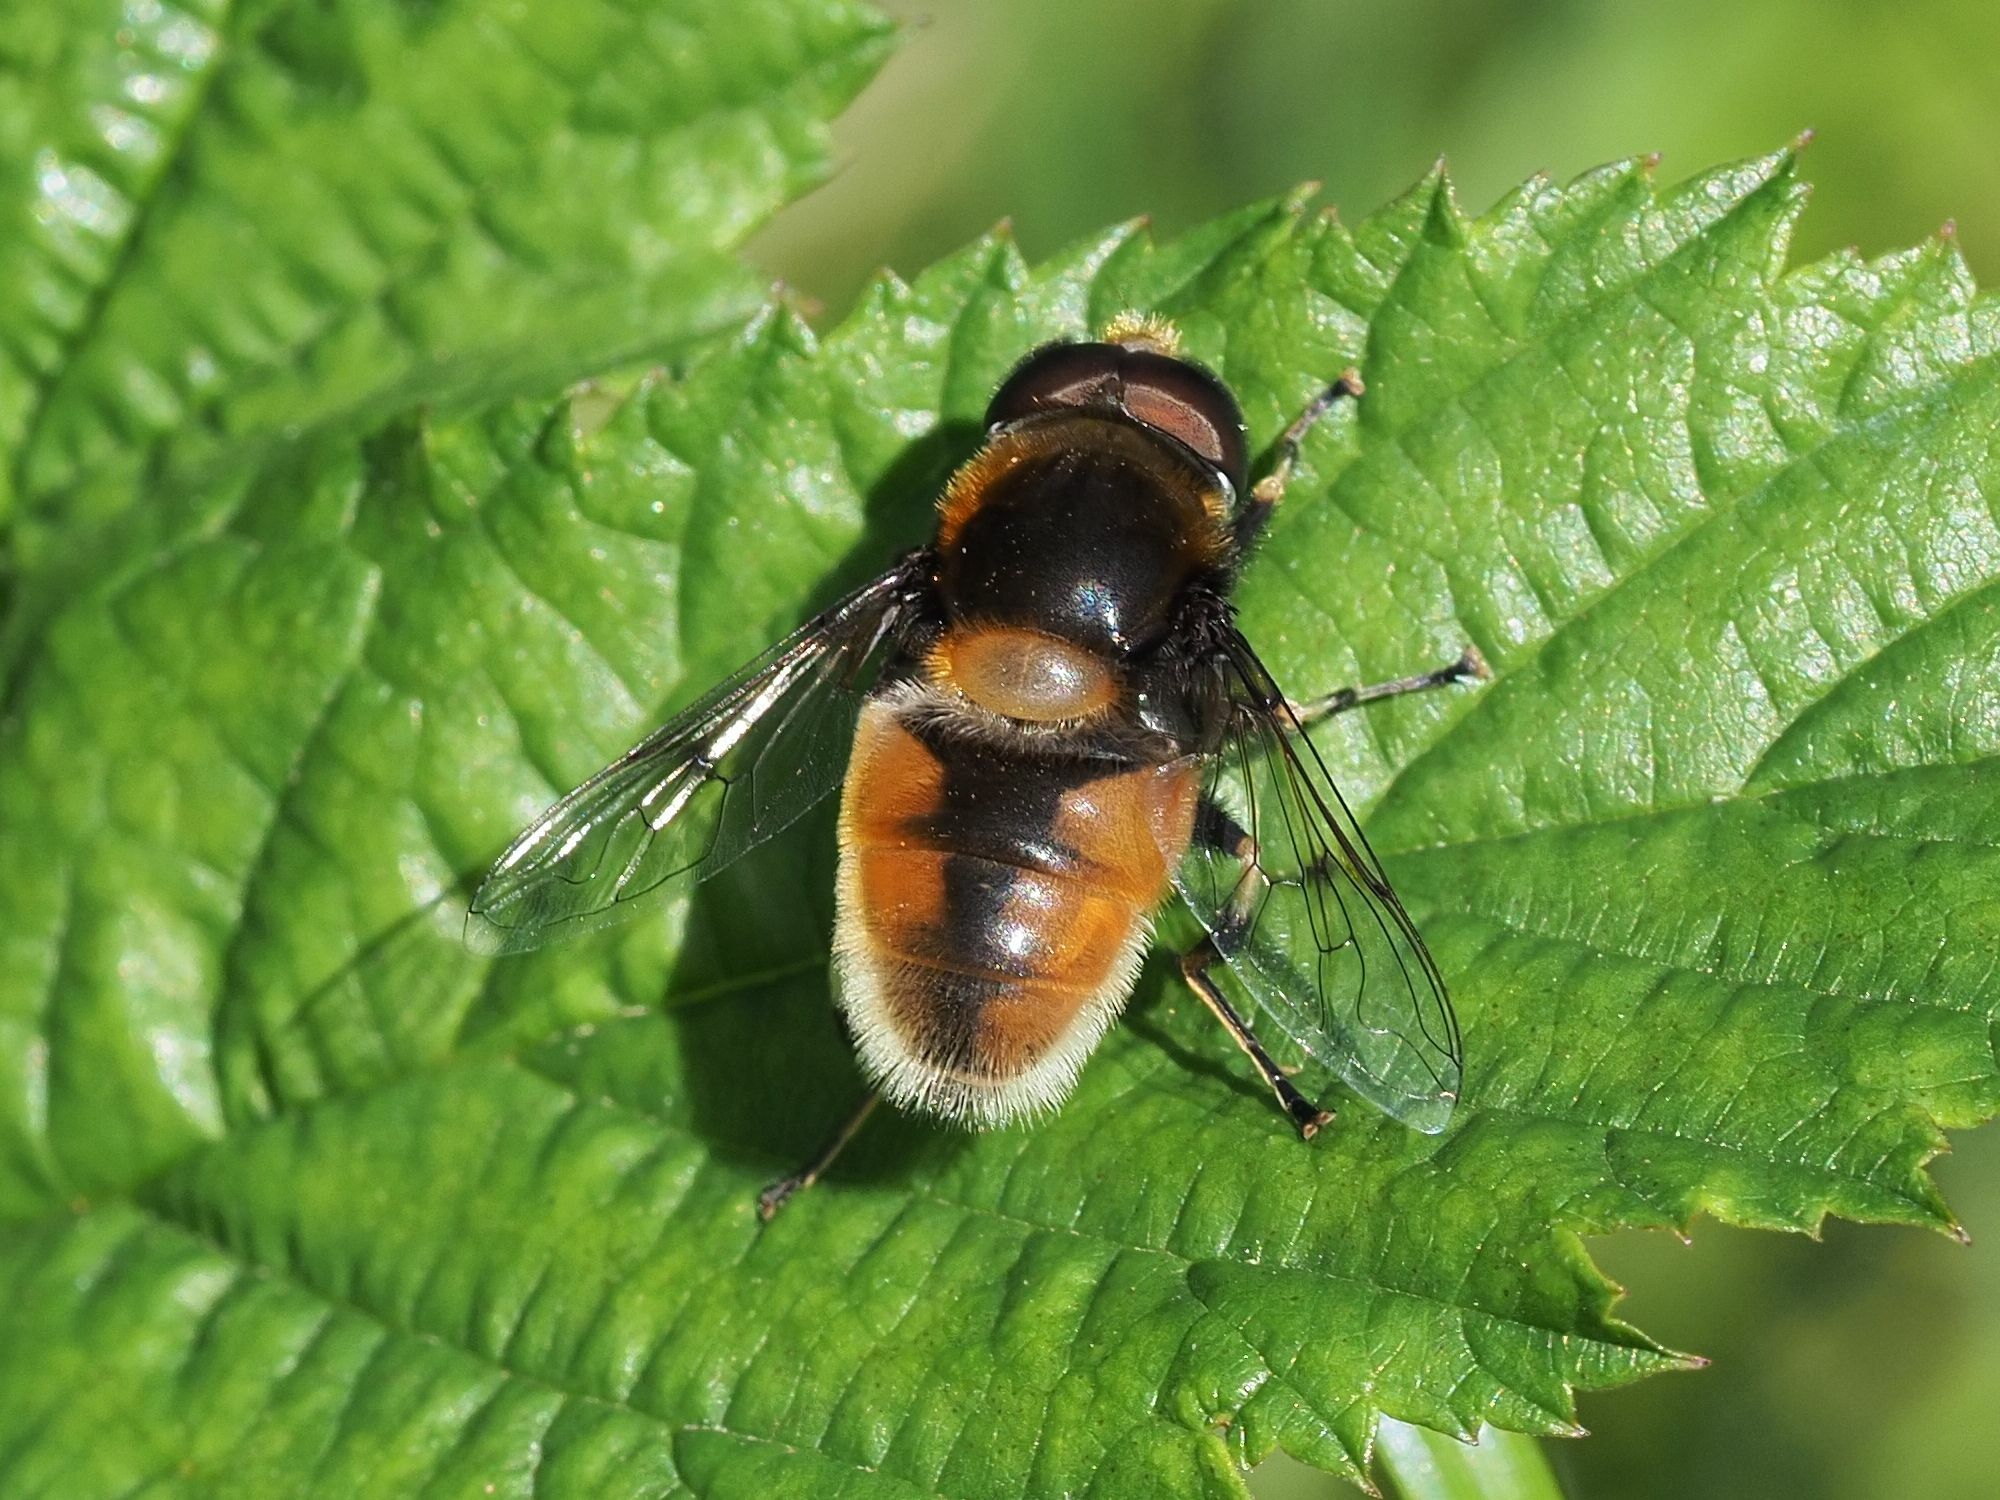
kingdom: Animalia
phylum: Arthropoda
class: Insecta
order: Diptera
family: Syrphidae
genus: Eristalis
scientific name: Eristalis intricaria
